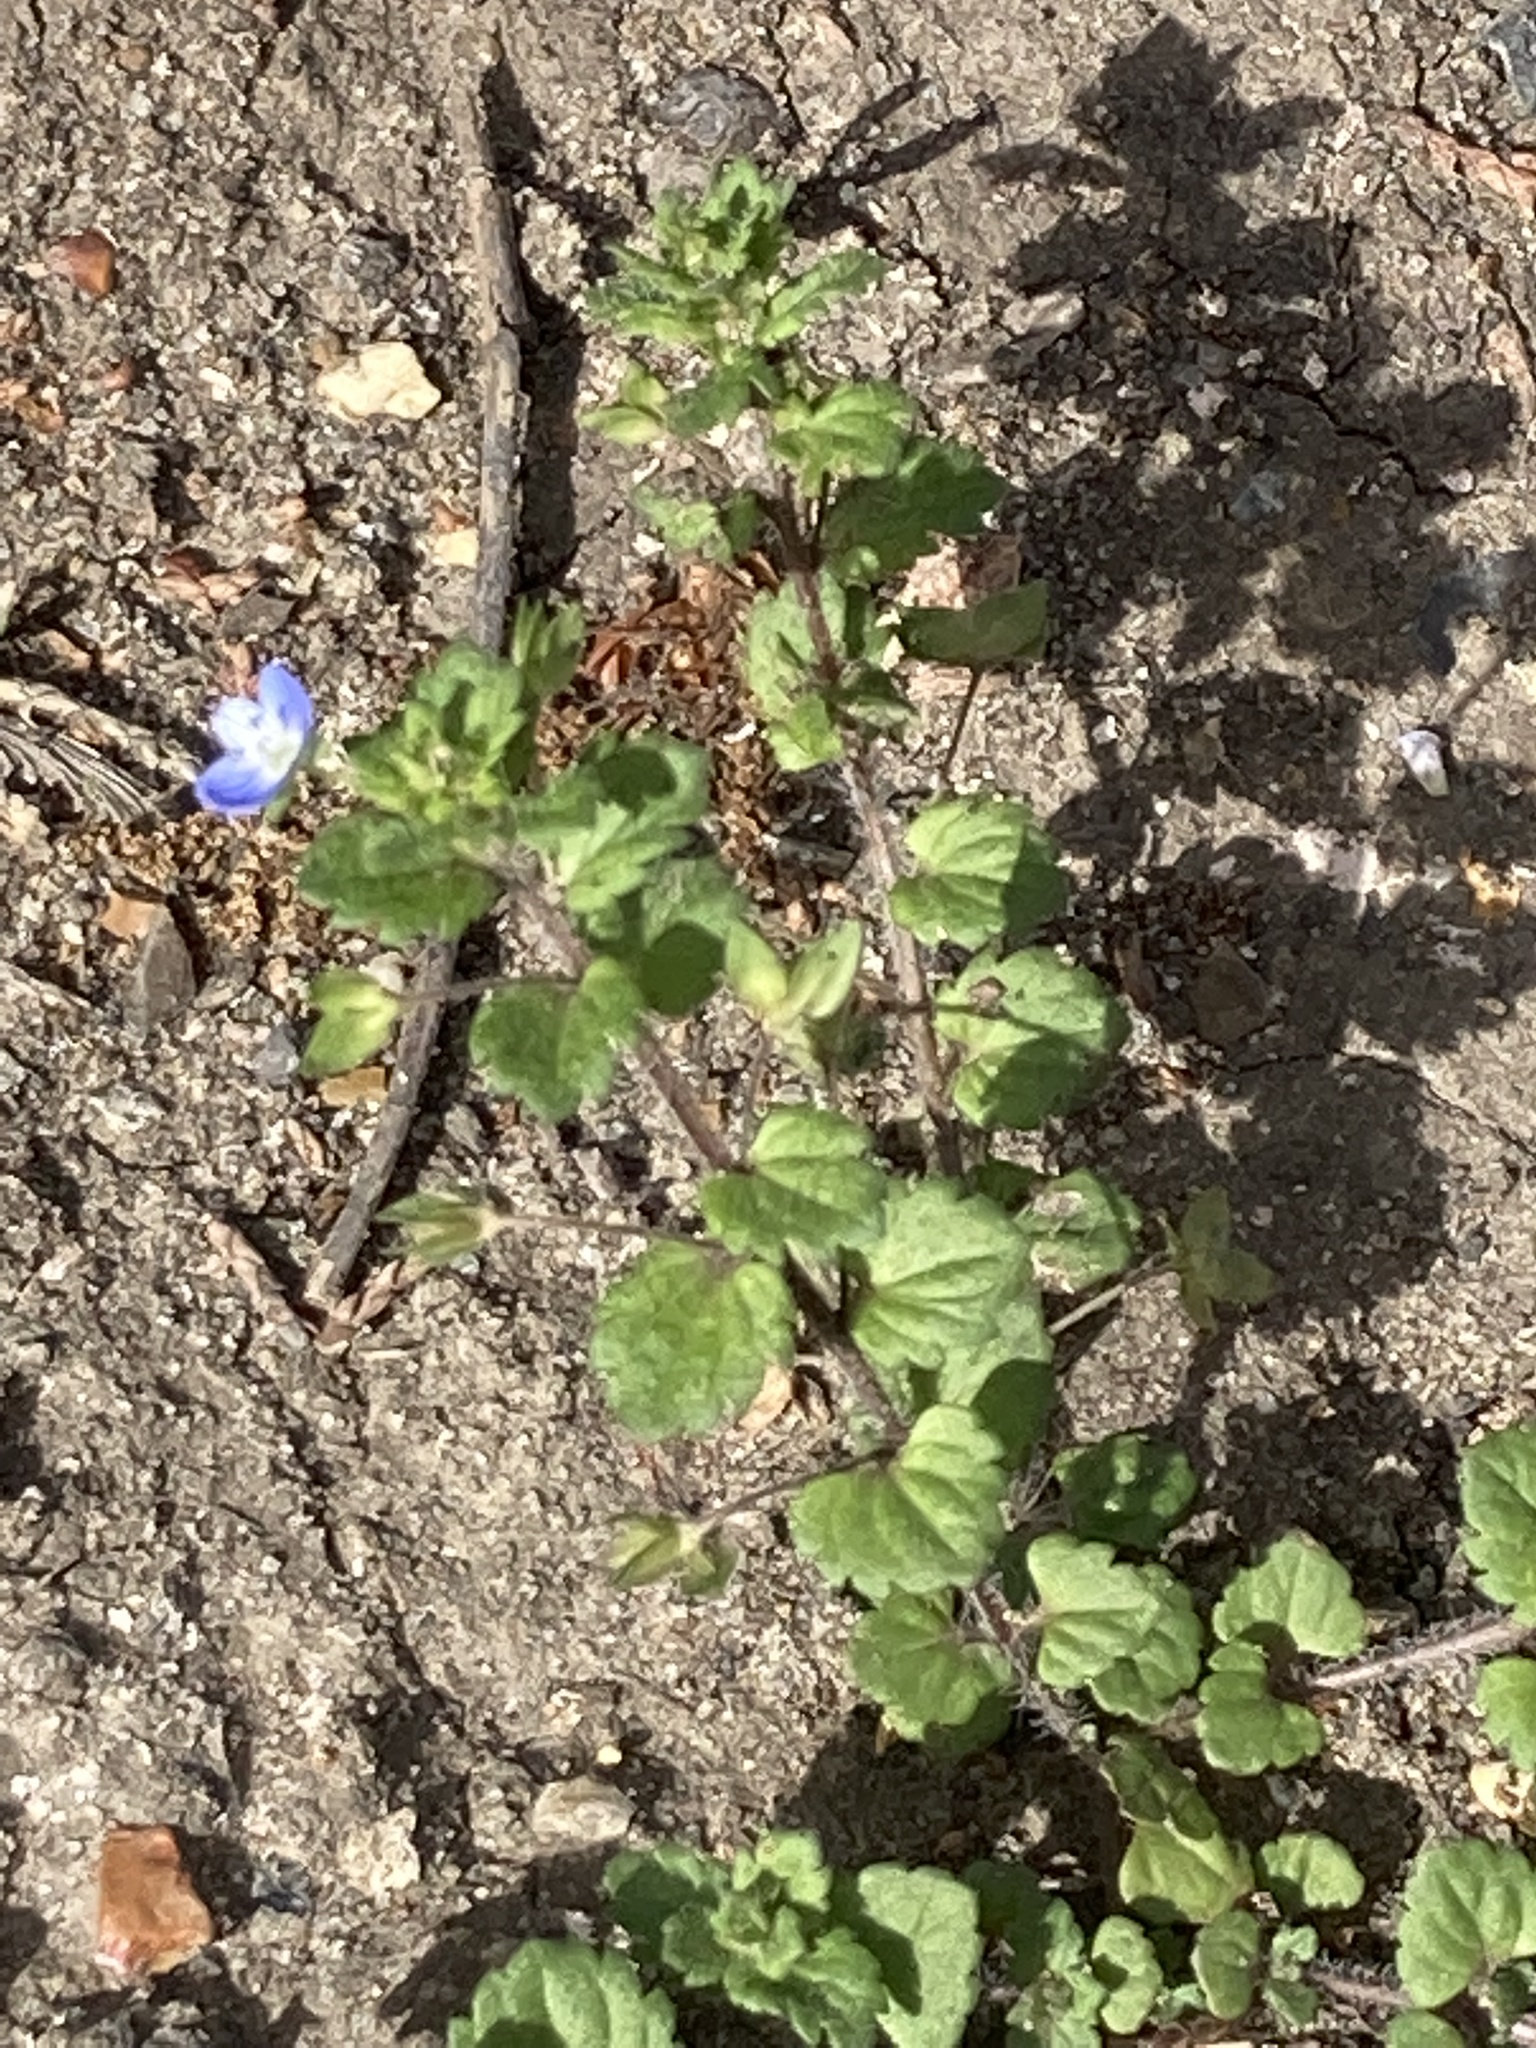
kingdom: Plantae
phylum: Tracheophyta
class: Magnoliopsida
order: Lamiales
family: Plantaginaceae
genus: Veronica
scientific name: Veronica persica
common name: Common field-speedwell
